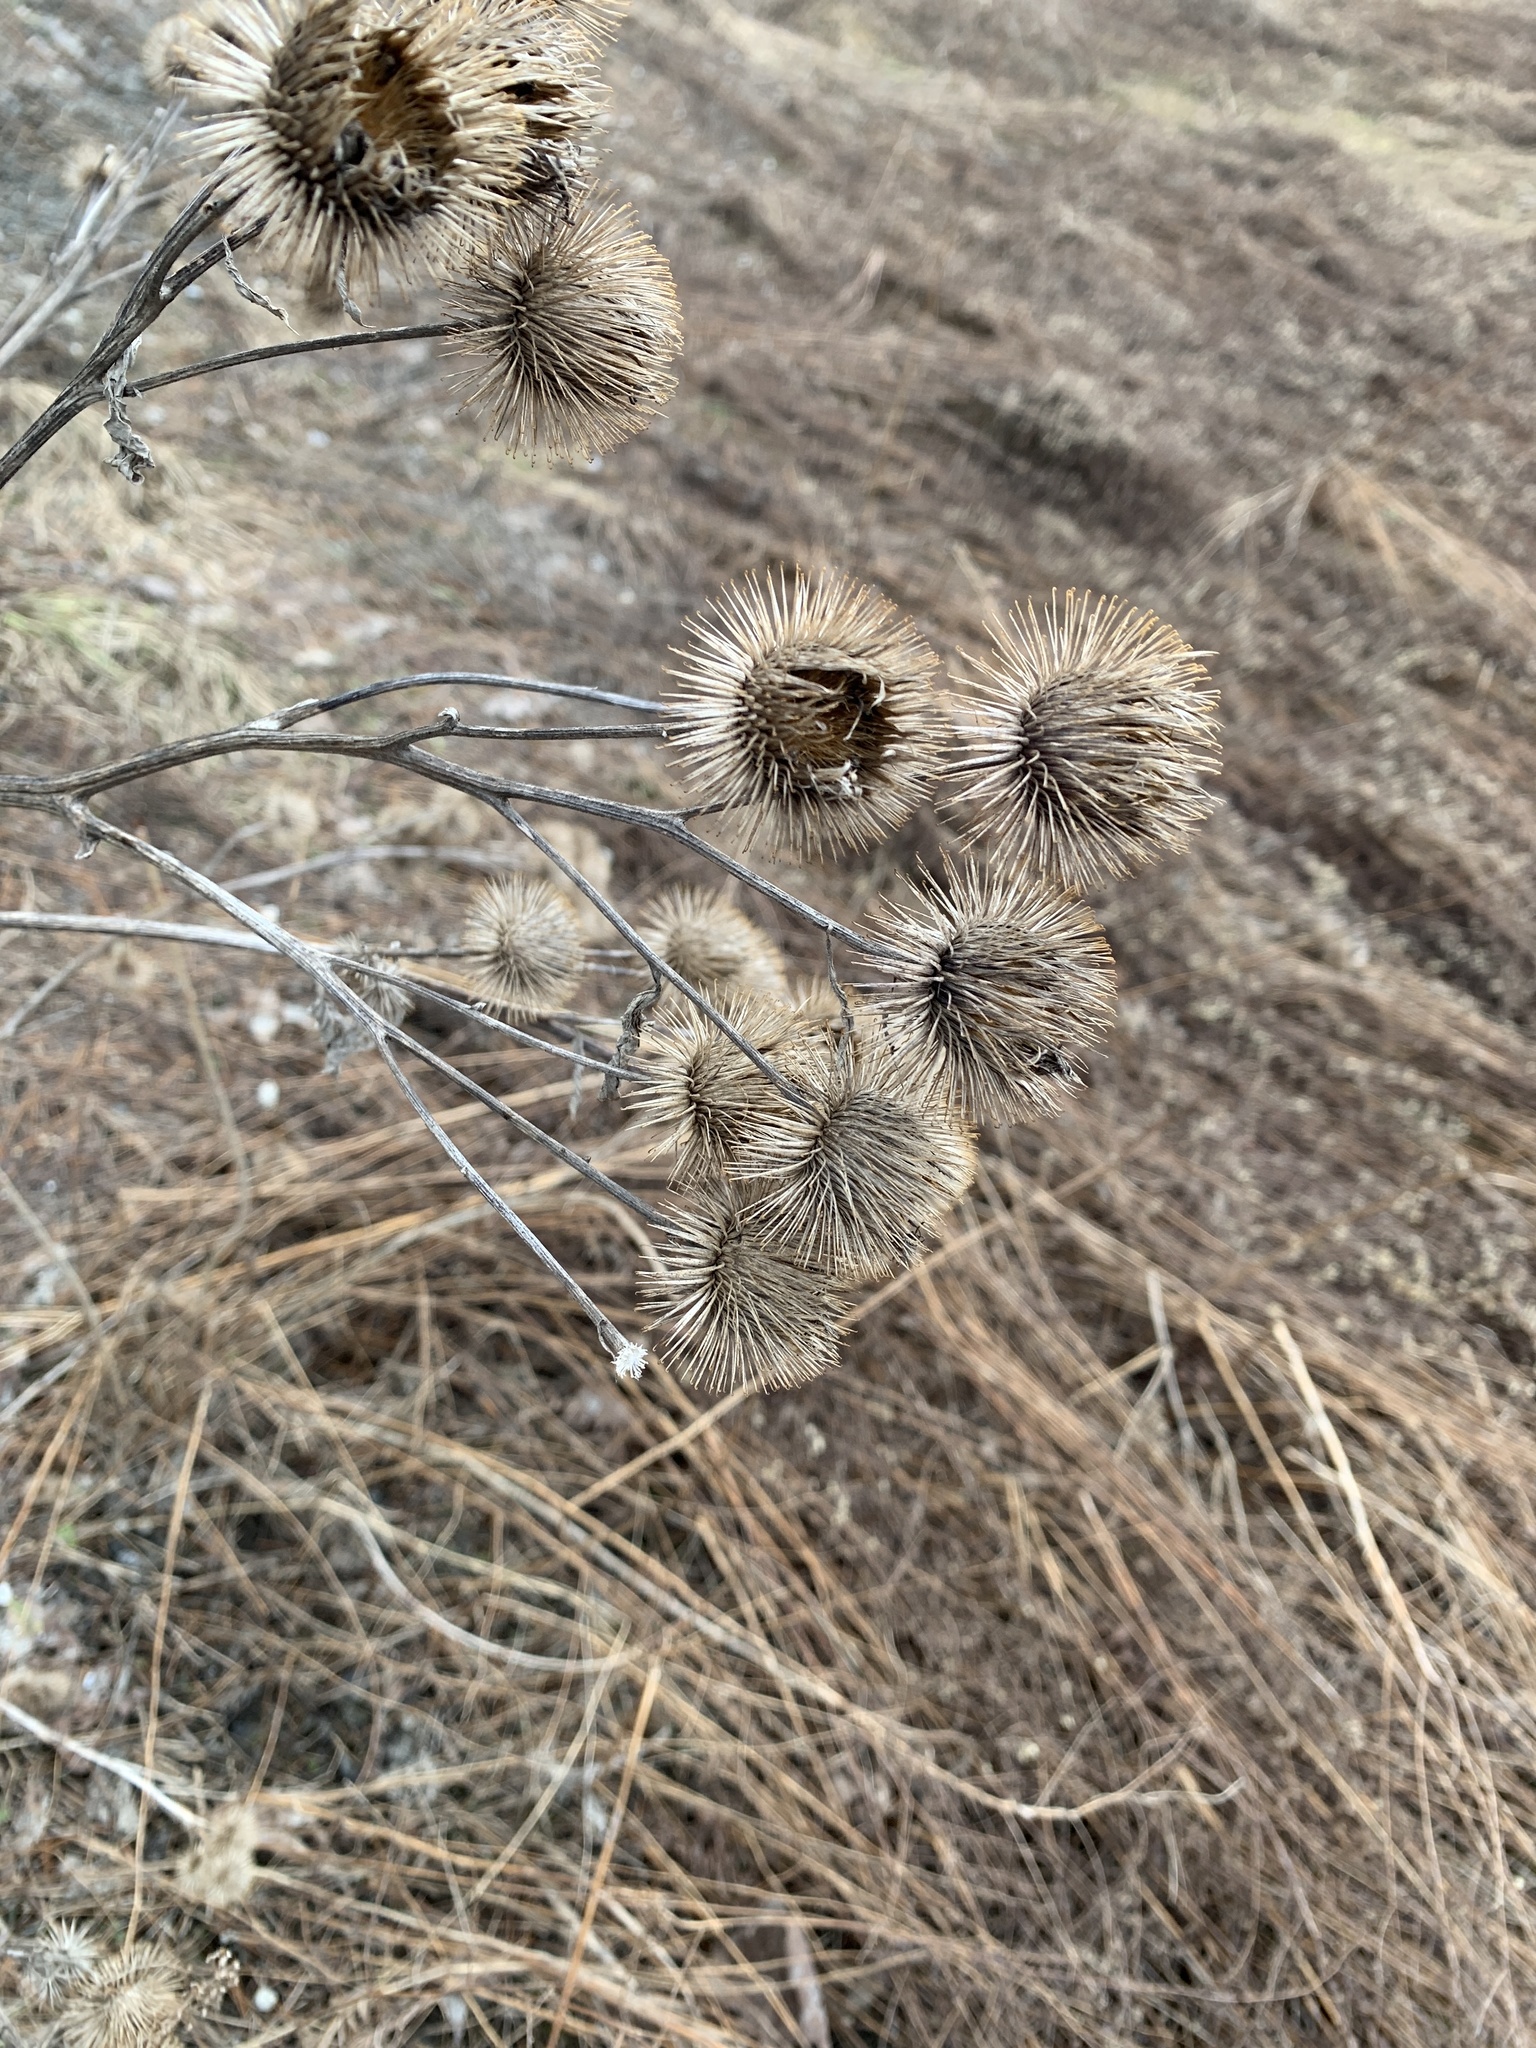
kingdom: Plantae
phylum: Tracheophyta
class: Magnoliopsida
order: Asterales
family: Asteraceae
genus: Arctium
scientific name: Arctium lappa
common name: Greater burdock
